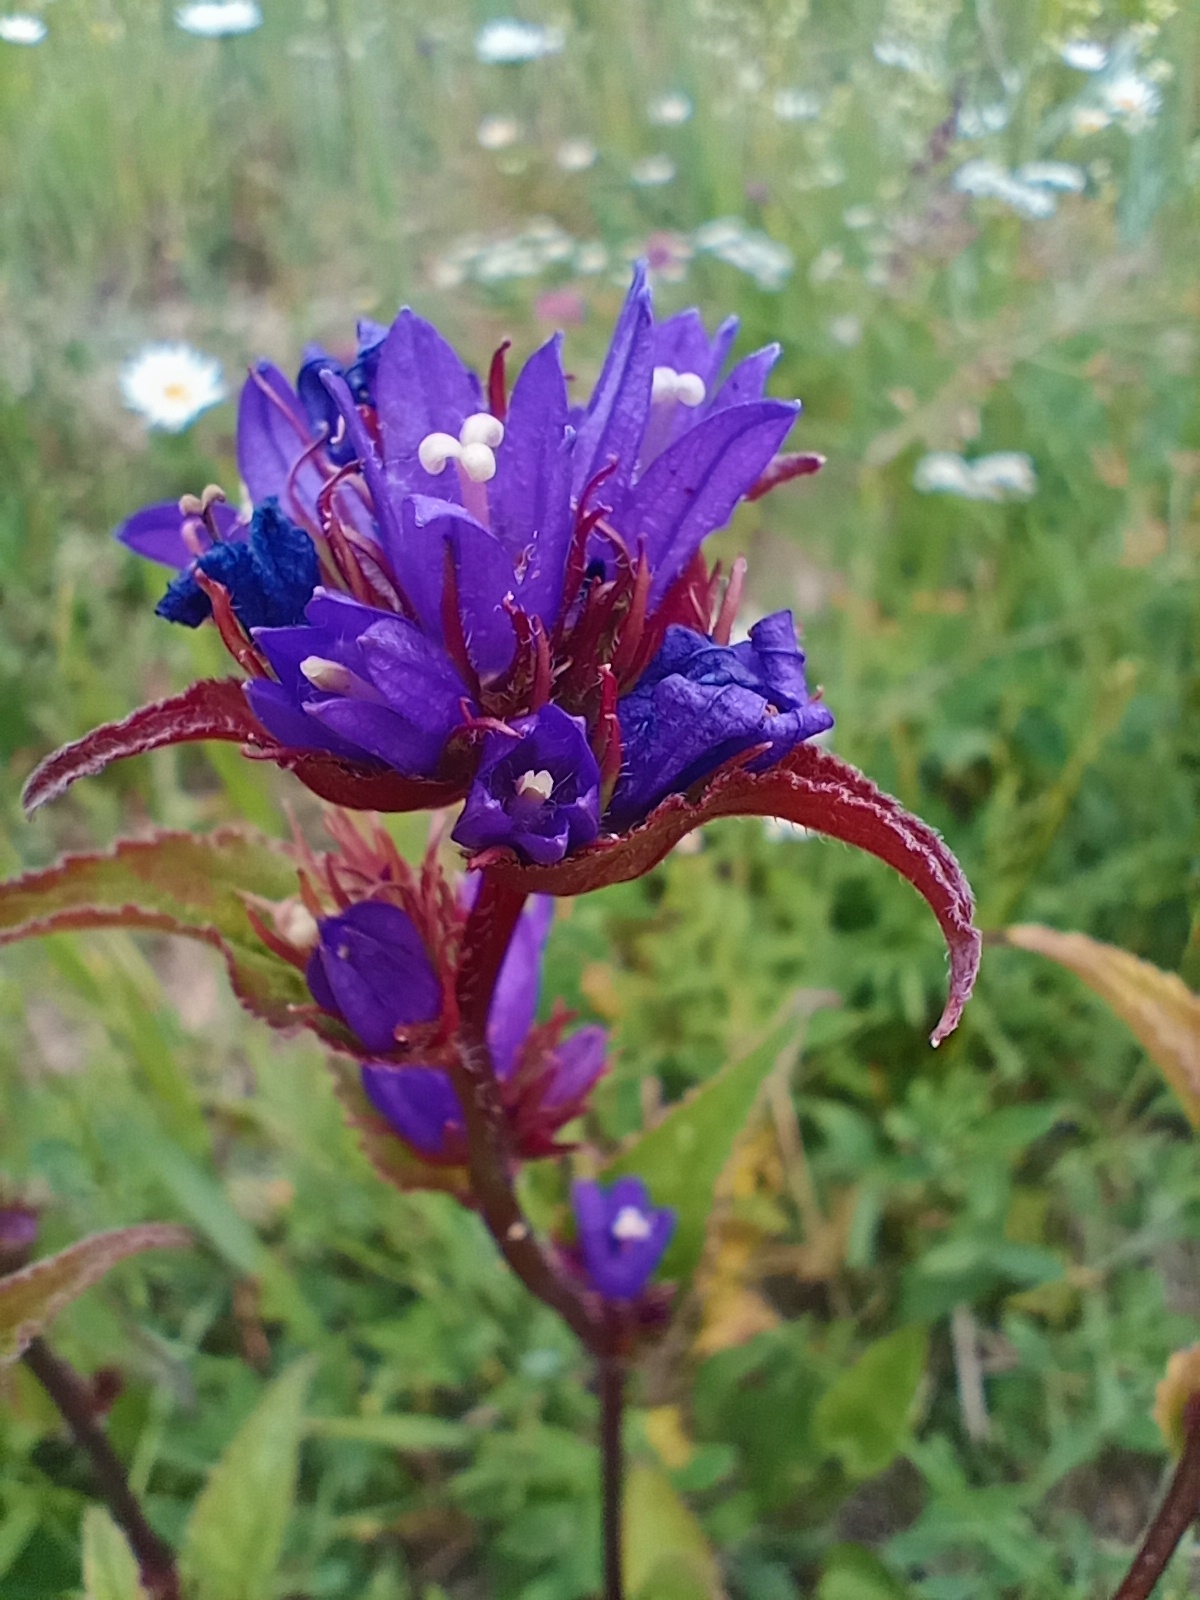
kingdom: Plantae
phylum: Tracheophyta
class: Magnoliopsida
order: Asterales
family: Campanulaceae
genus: Campanula
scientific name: Campanula glomerata
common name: Clustered bellflower
